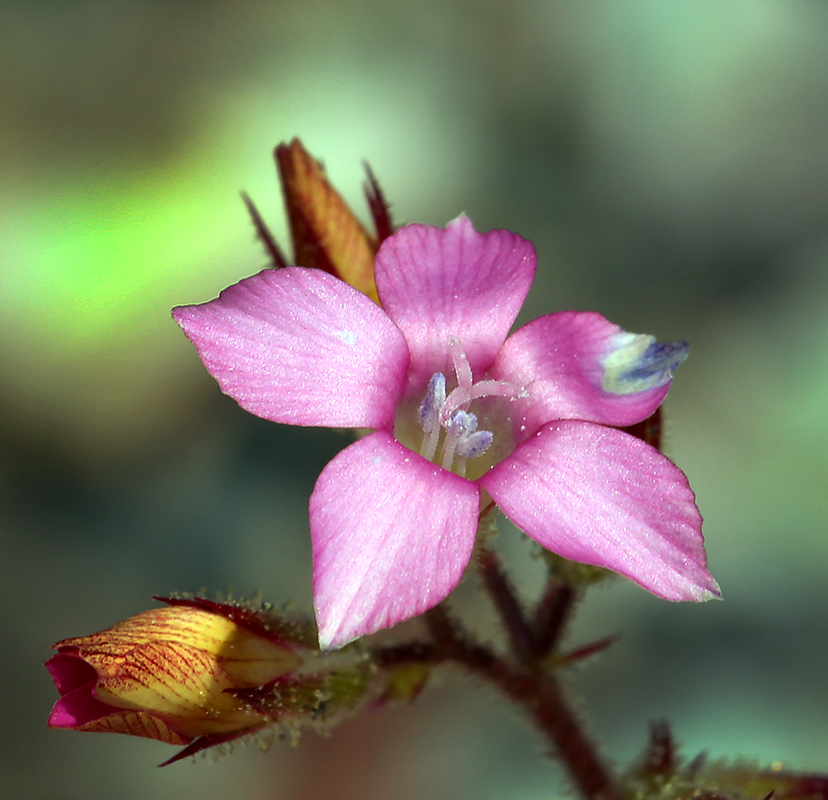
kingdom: Plantae
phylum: Tracheophyta
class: Magnoliopsida
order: Ericales
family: Polemoniaceae
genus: Aliciella
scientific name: Aliciella latifolia
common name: Broad-leaf gilia
